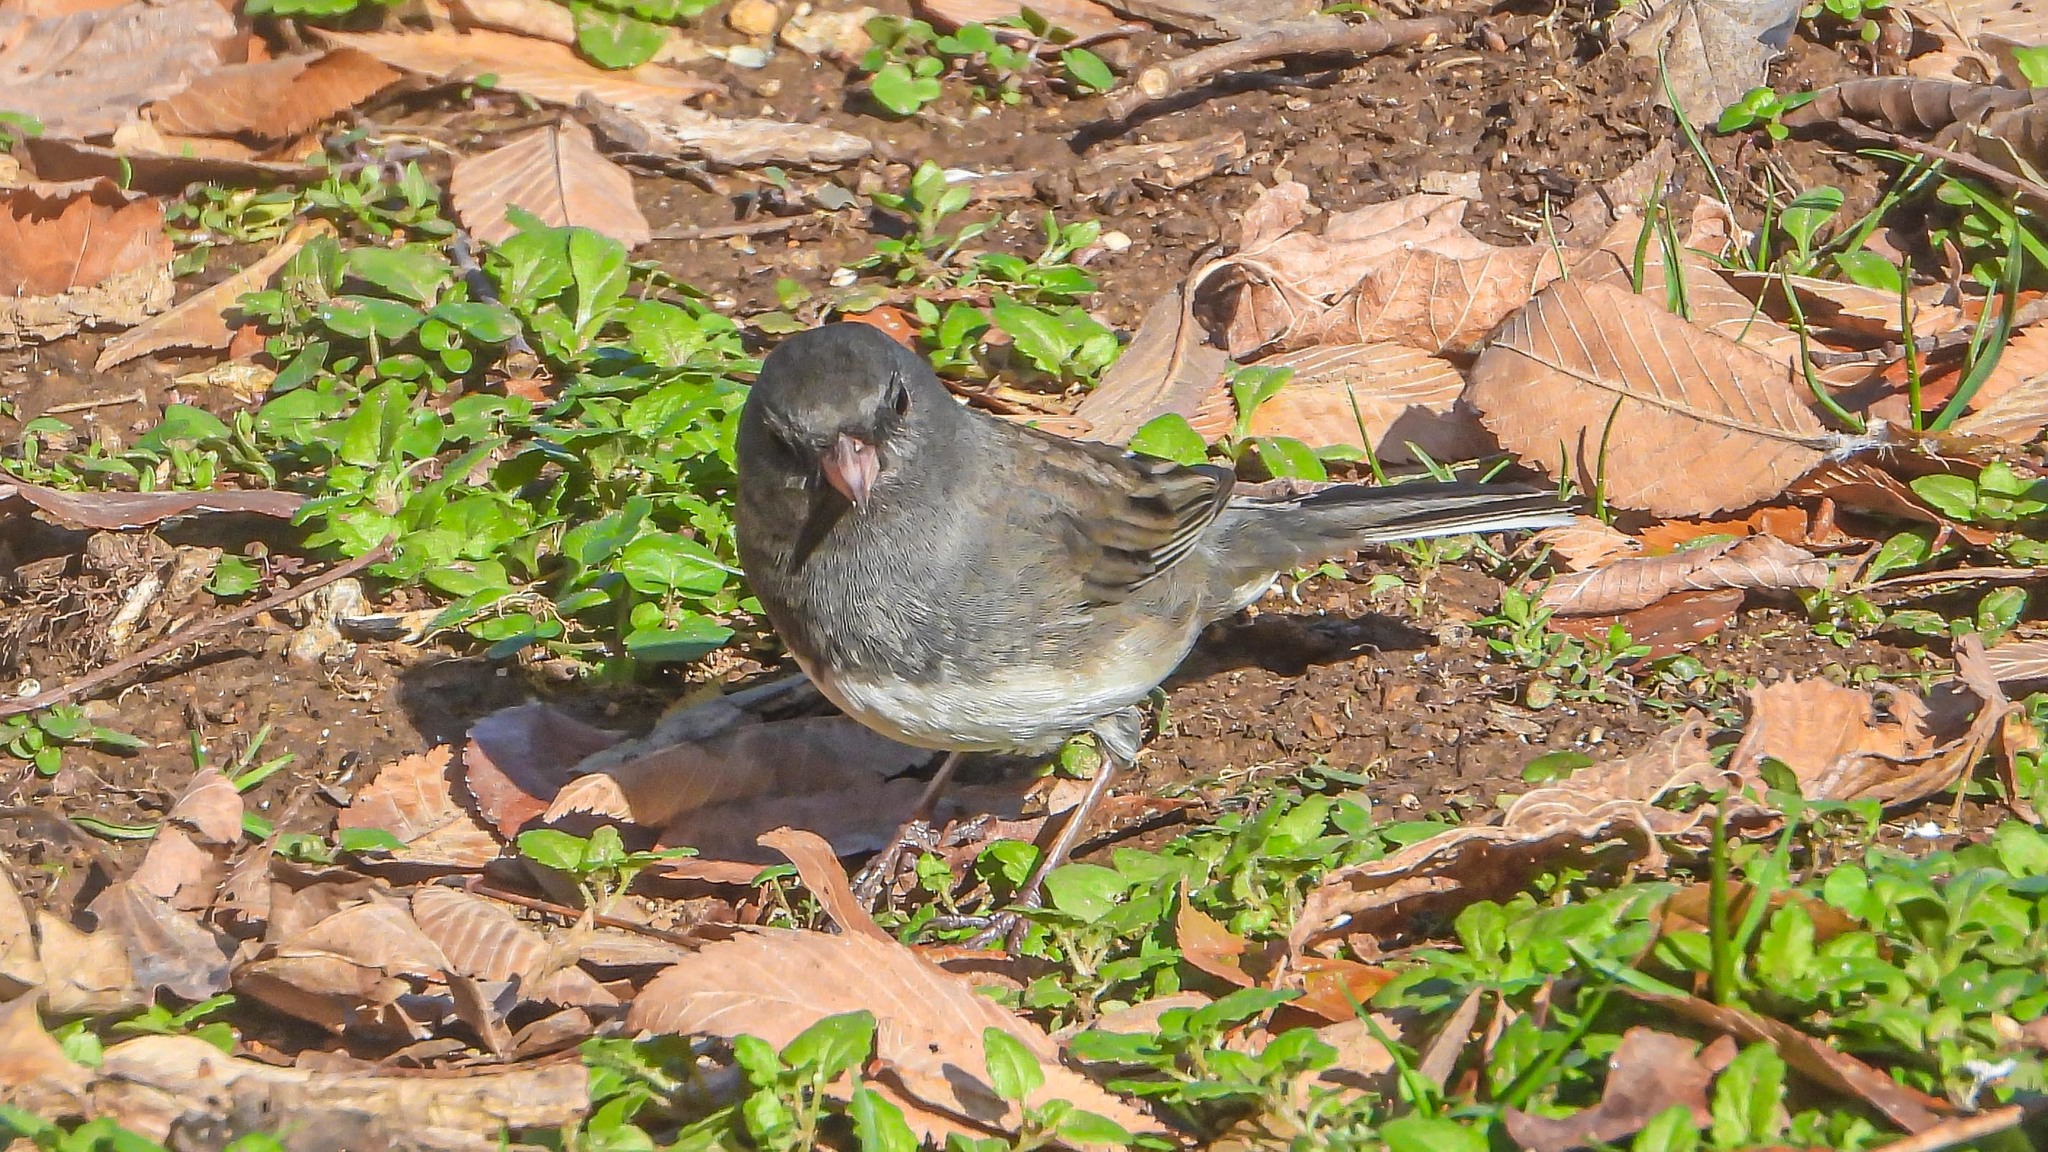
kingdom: Animalia
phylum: Chordata
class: Aves
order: Passeriformes
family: Passerellidae
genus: Junco
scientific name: Junco hyemalis
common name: Dark-eyed junco
